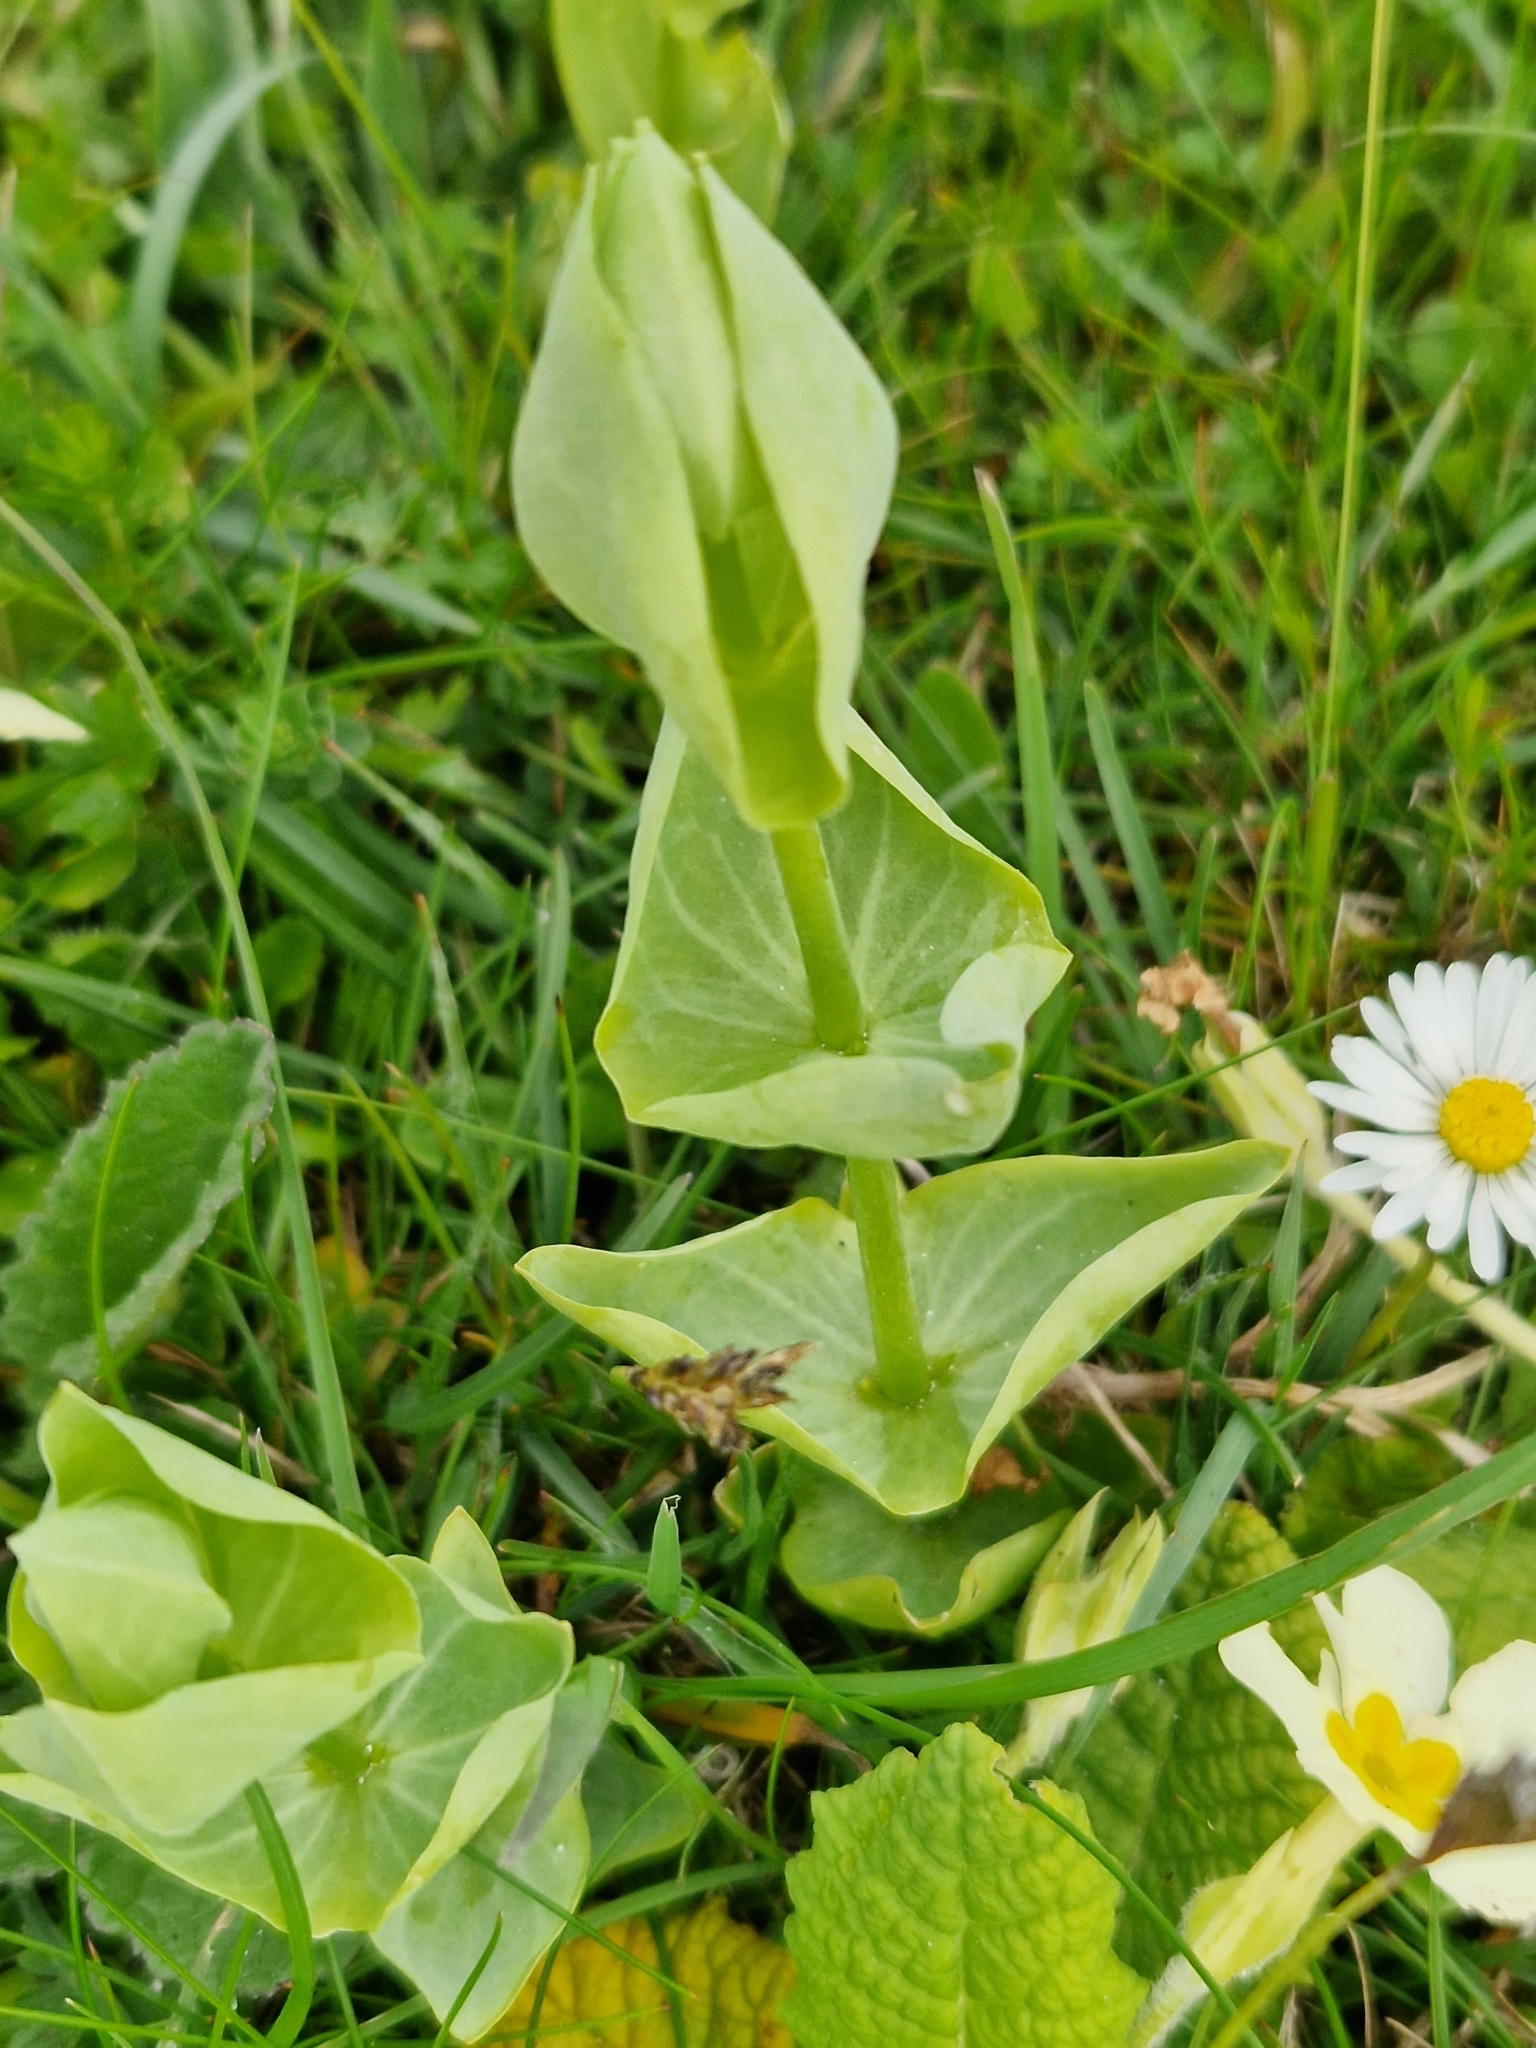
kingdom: Plantae
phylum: Tracheophyta
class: Magnoliopsida
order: Gentianales
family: Gentianaceae
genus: Blackstonia
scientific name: Blackstonia perfoliata
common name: Yellow-wort
